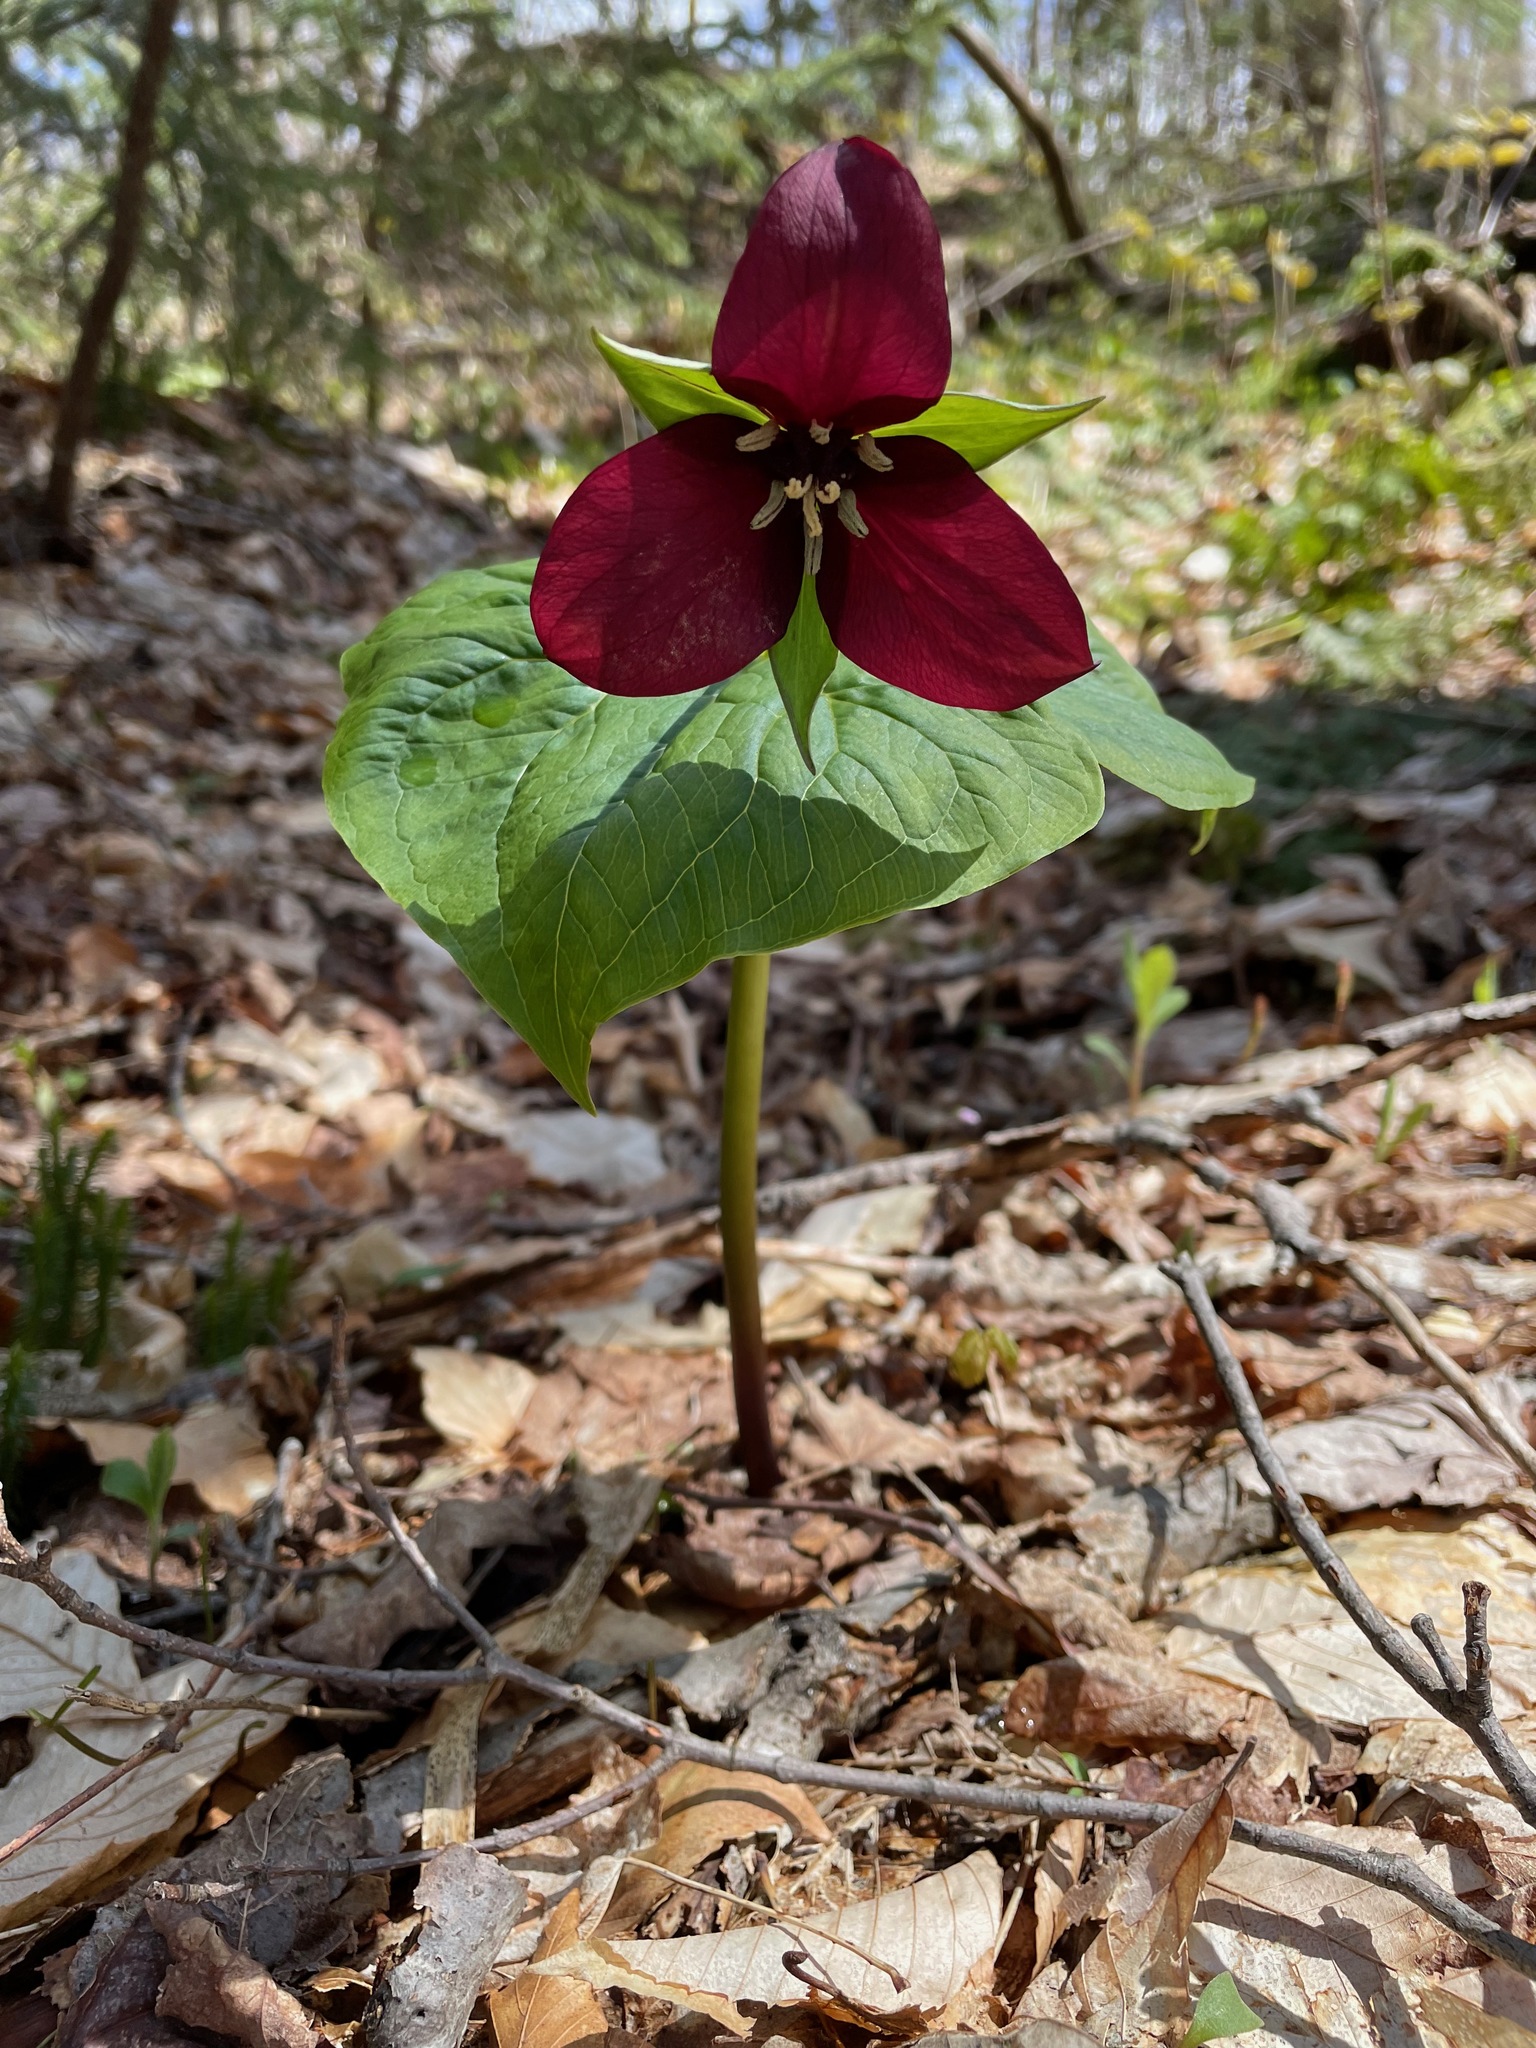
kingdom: Plantae
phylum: Tracheophyta
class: Liliopsida
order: Liliales
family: Melanthiaceae
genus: Trillium
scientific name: Trillium erectum
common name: Purple trillium
